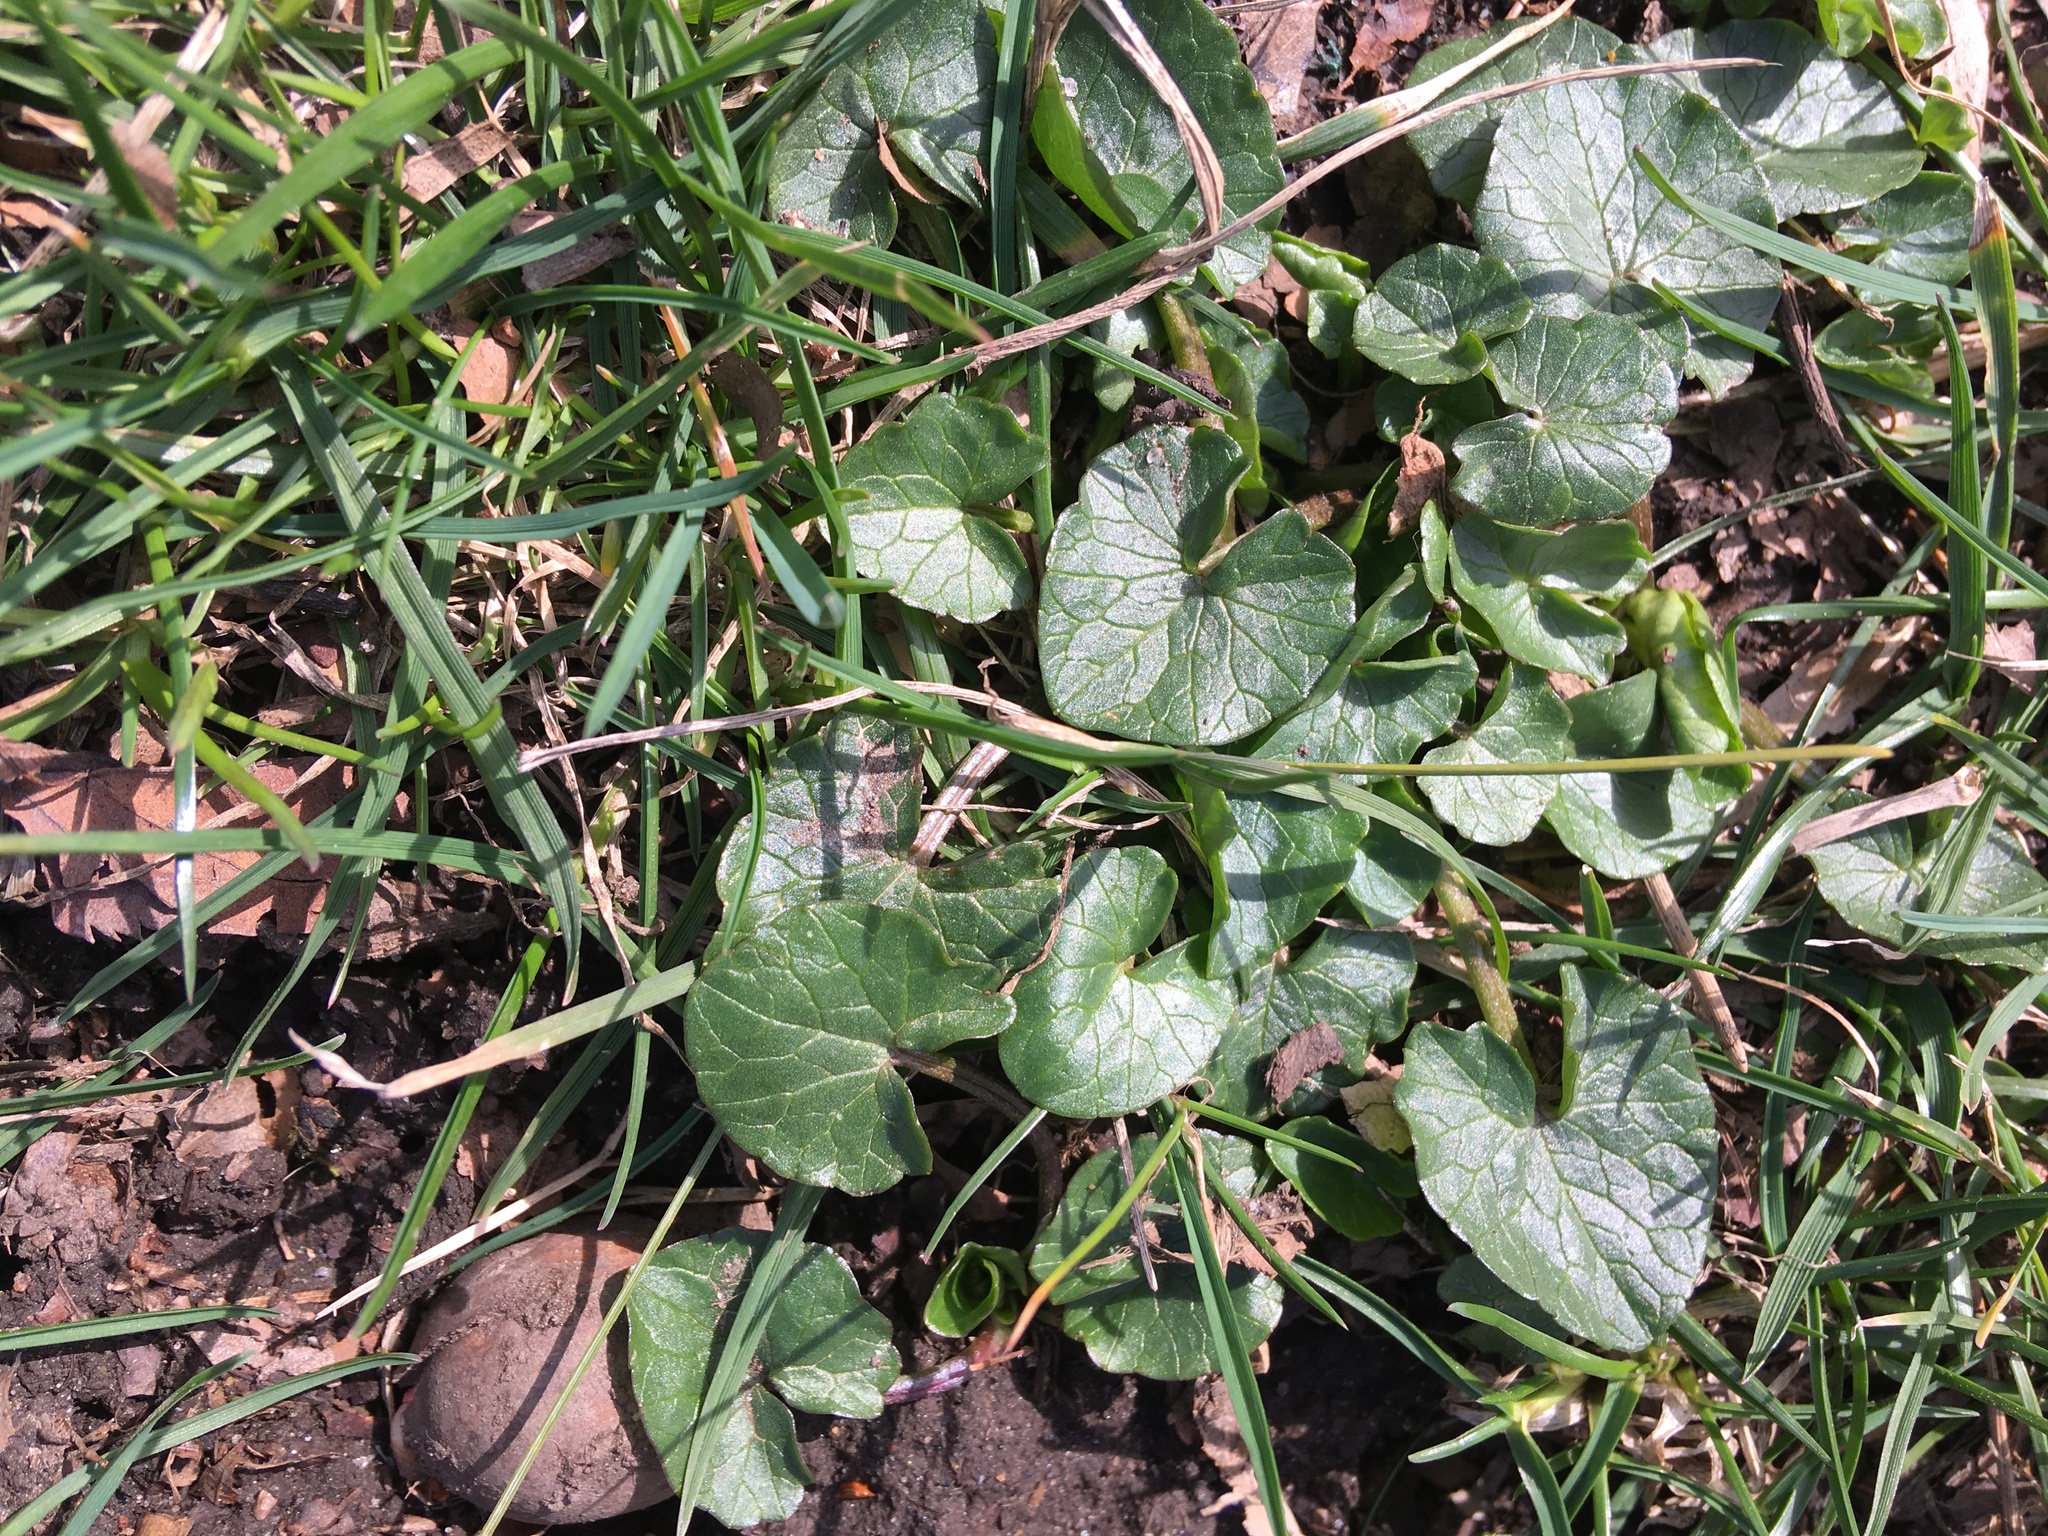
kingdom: Plantae
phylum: Tracheophyta
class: Magnoliopsida
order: Ranunculales
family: Ranunculaceae
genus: Ficaria
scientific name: Ficaria verna
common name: Lesser celandine
